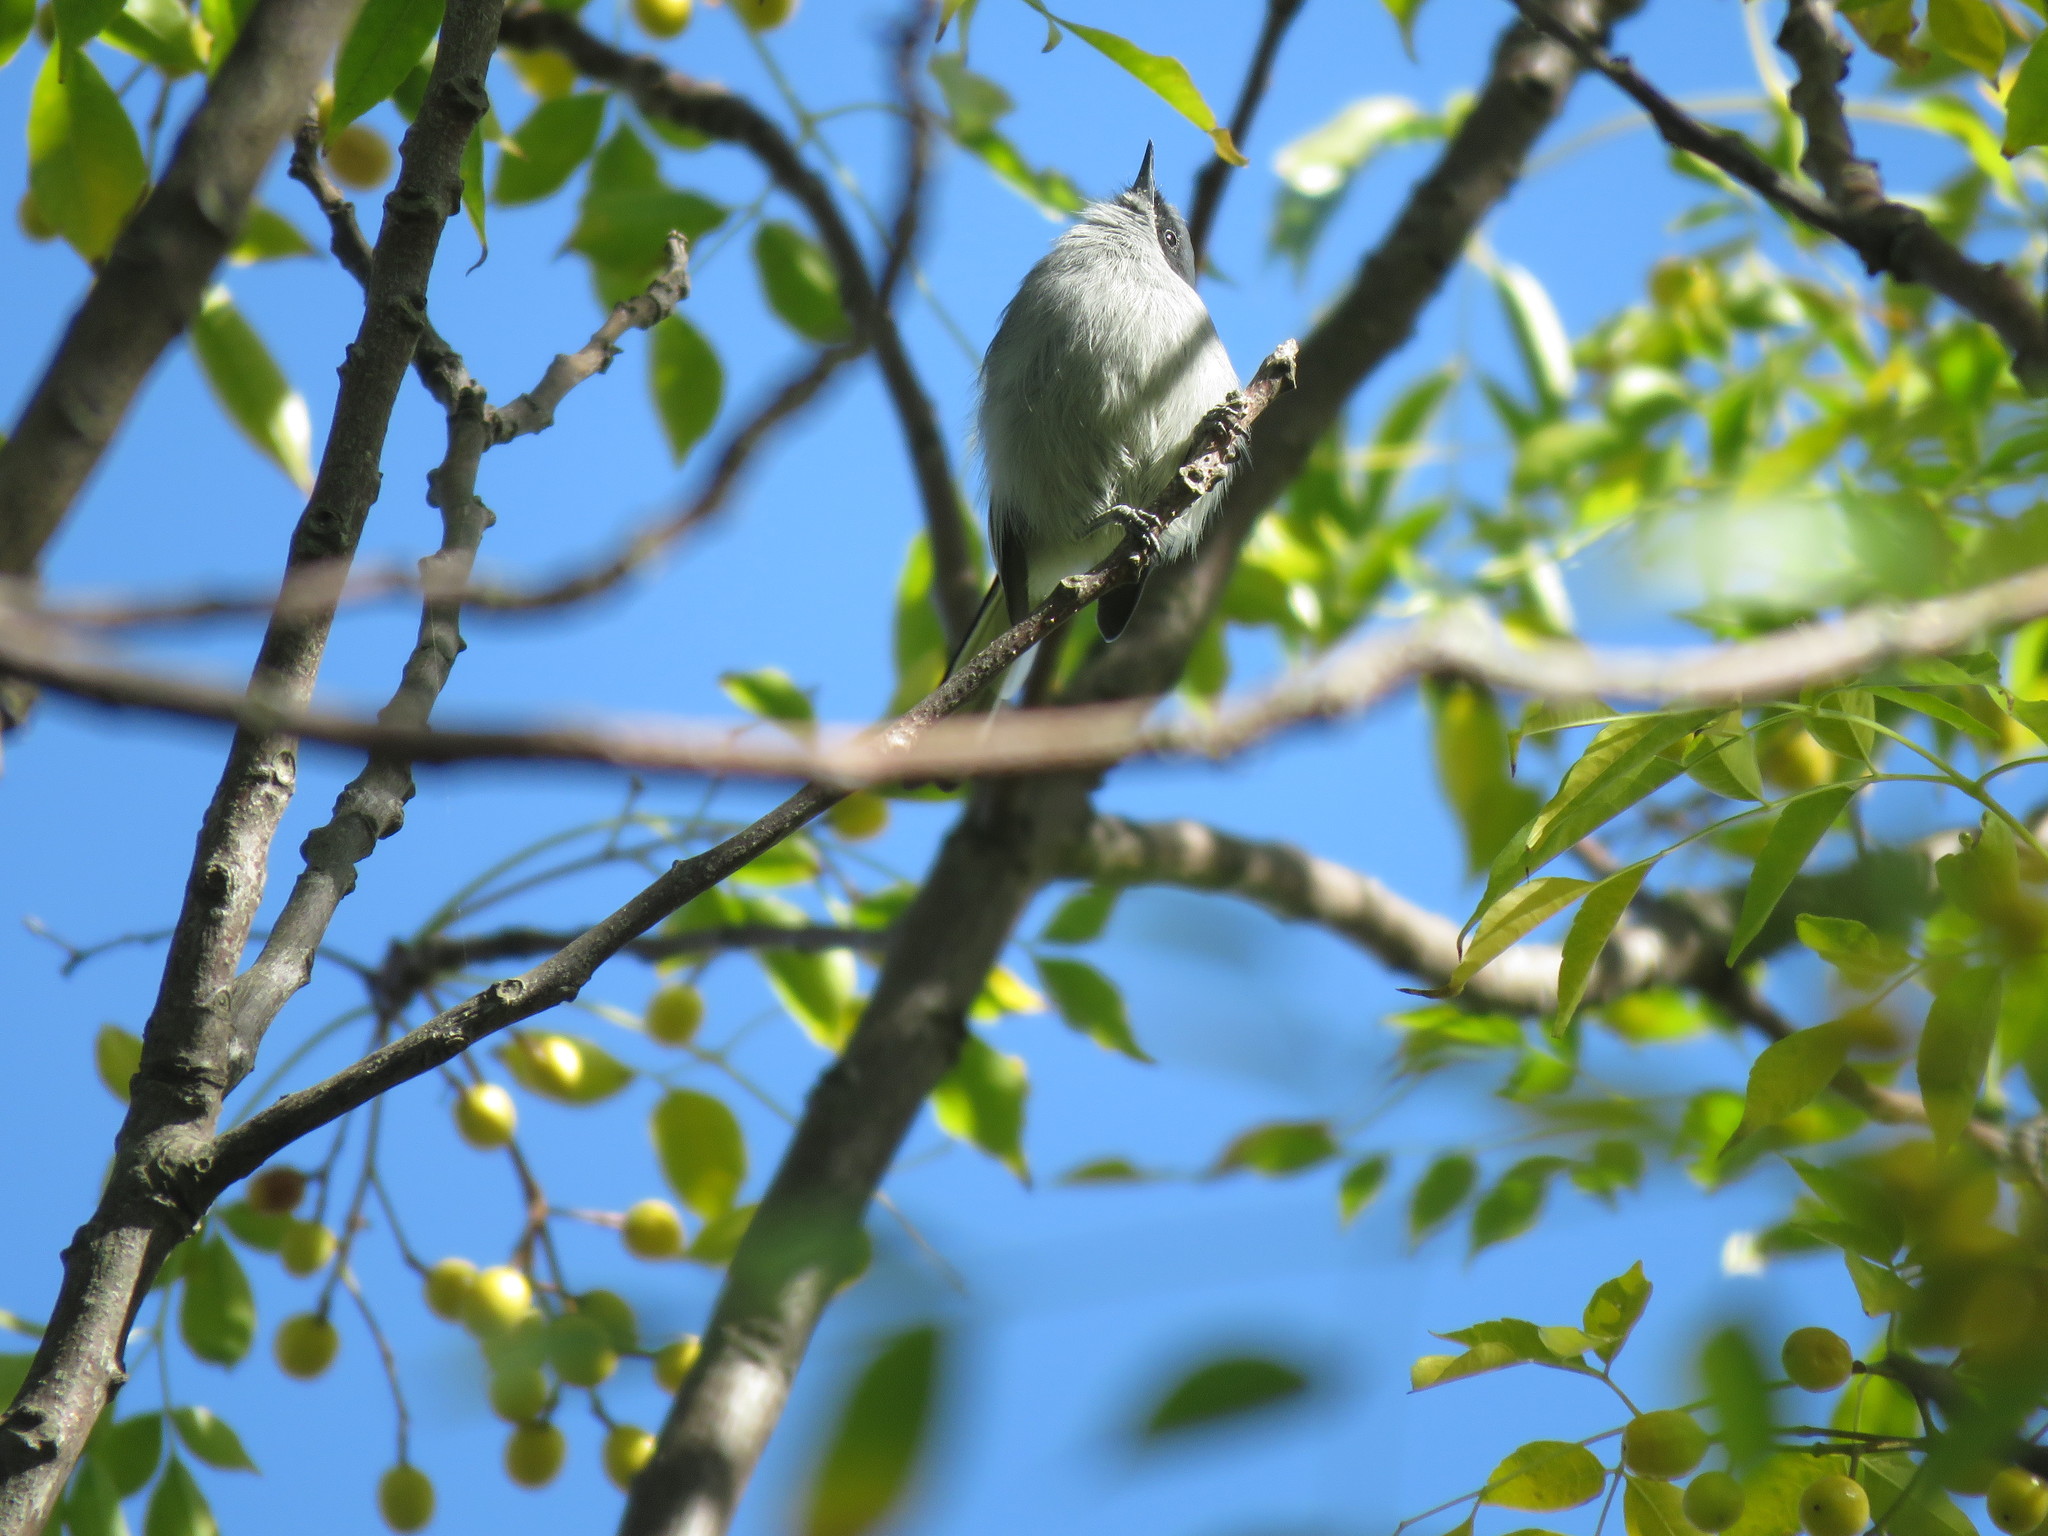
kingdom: Animalia
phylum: Chordata
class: Aves
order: Passeriformes
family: Polioptilidae
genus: Polioptila
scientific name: Polioptila dumicola
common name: Masked gnatcatcher
